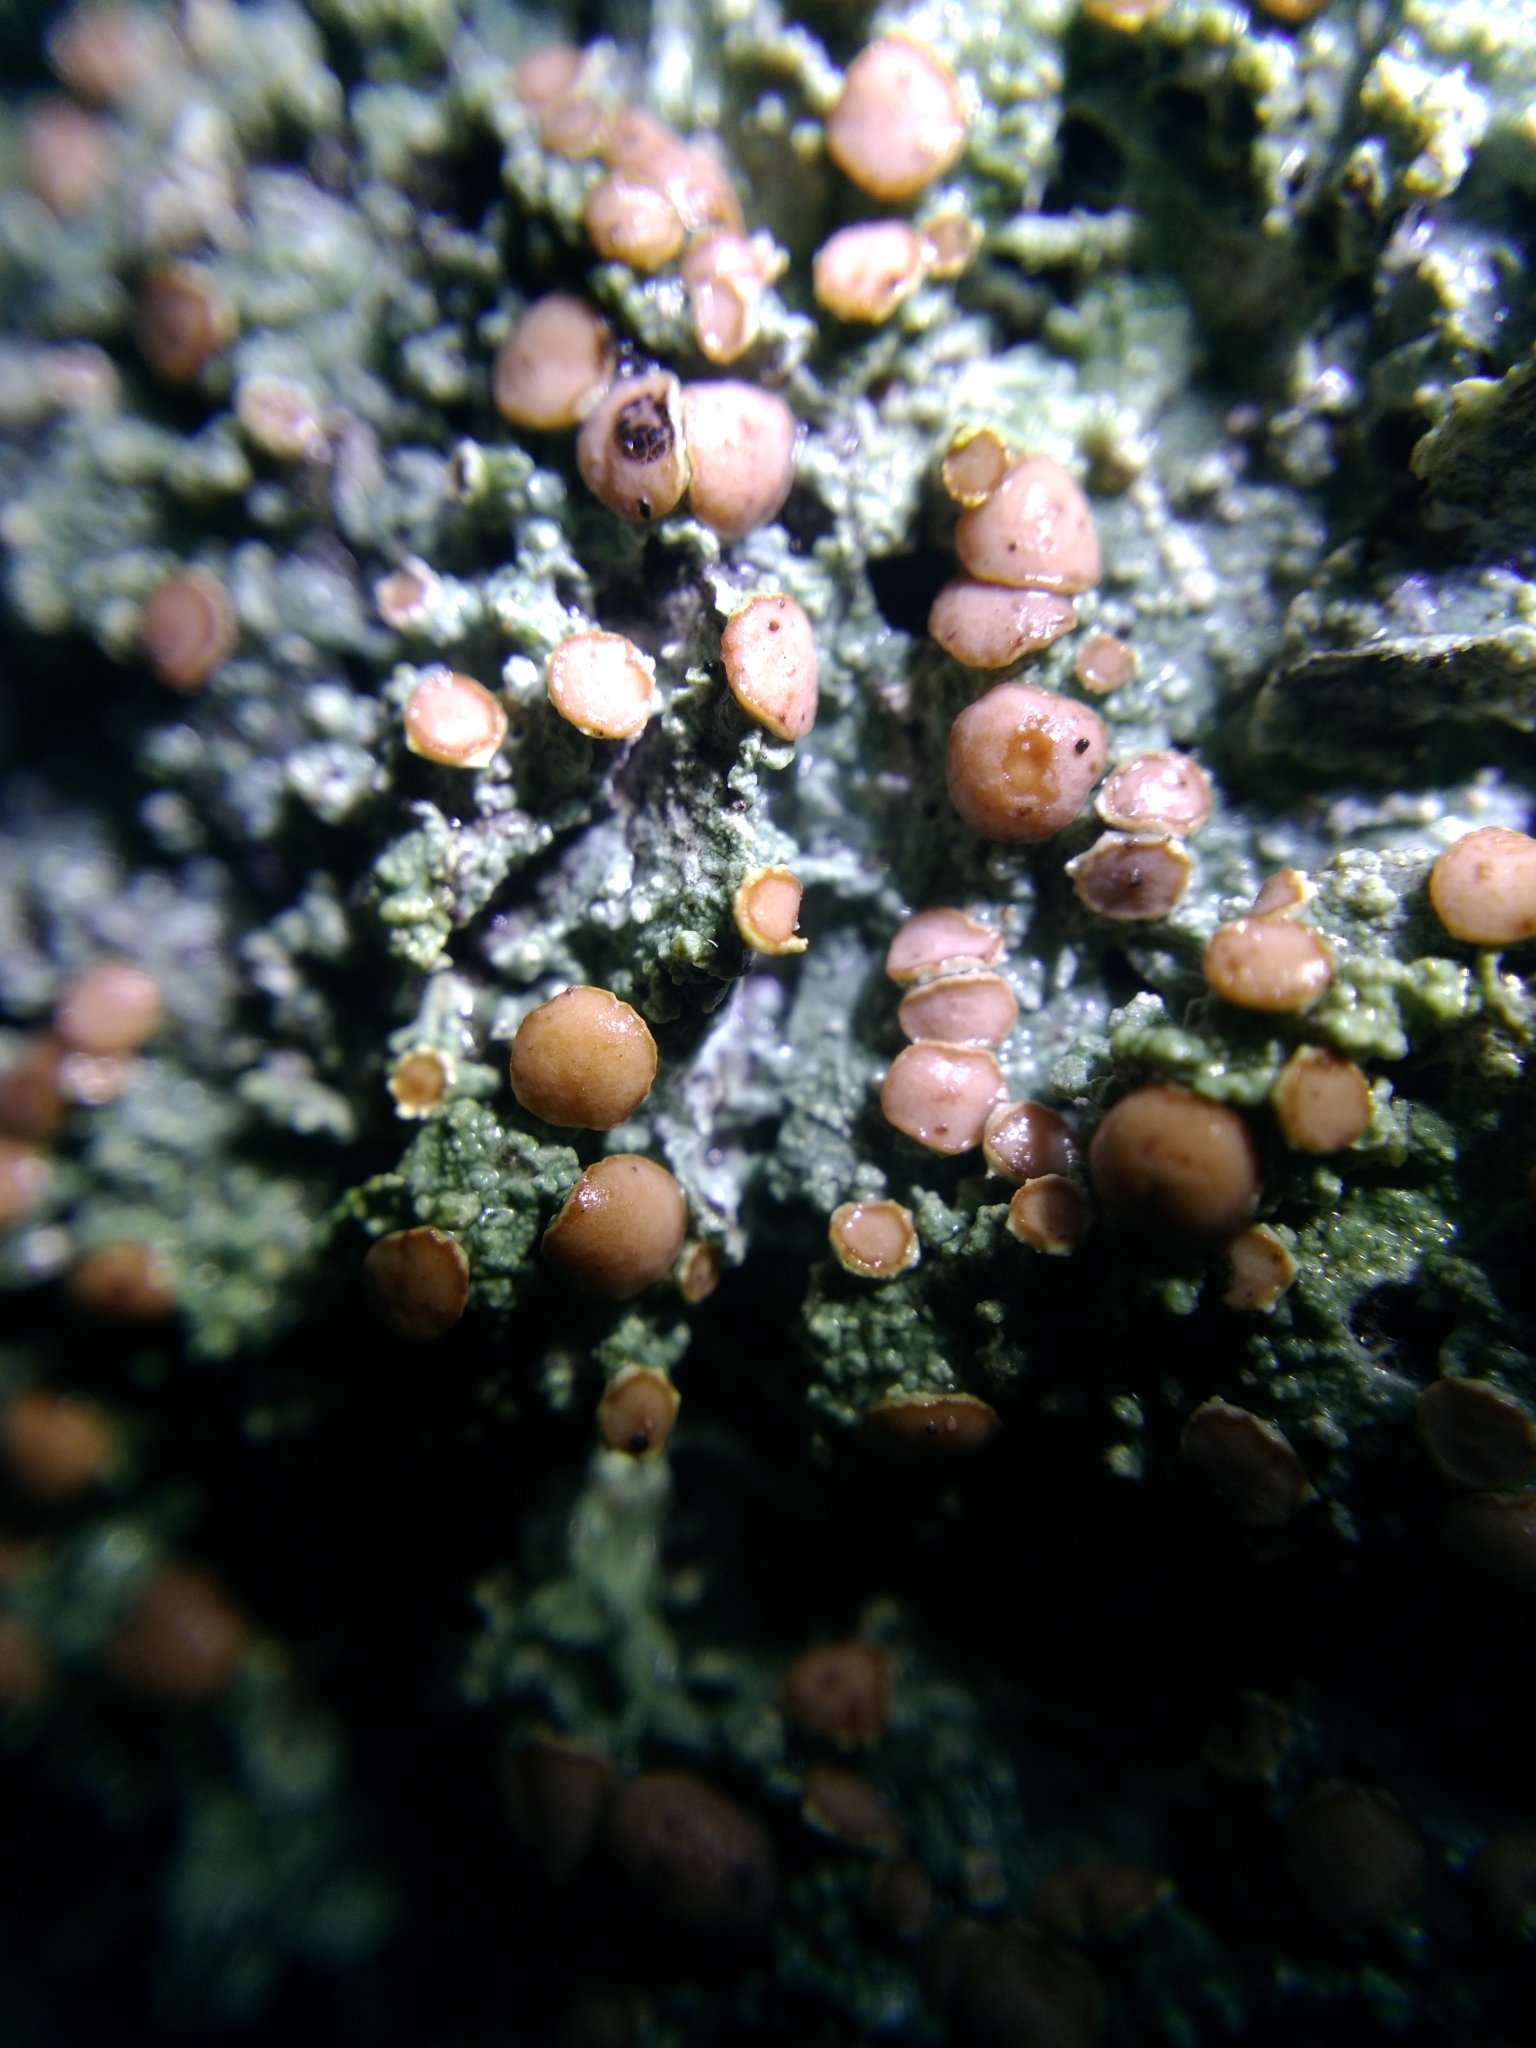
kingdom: Fungi
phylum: Ascomycota
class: Lecanoromycetes
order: Lecanorales
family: Sarrameanaceae
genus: Loxospora
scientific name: Loxospora ochrophaea
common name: Eastern ragged-rim lichen
